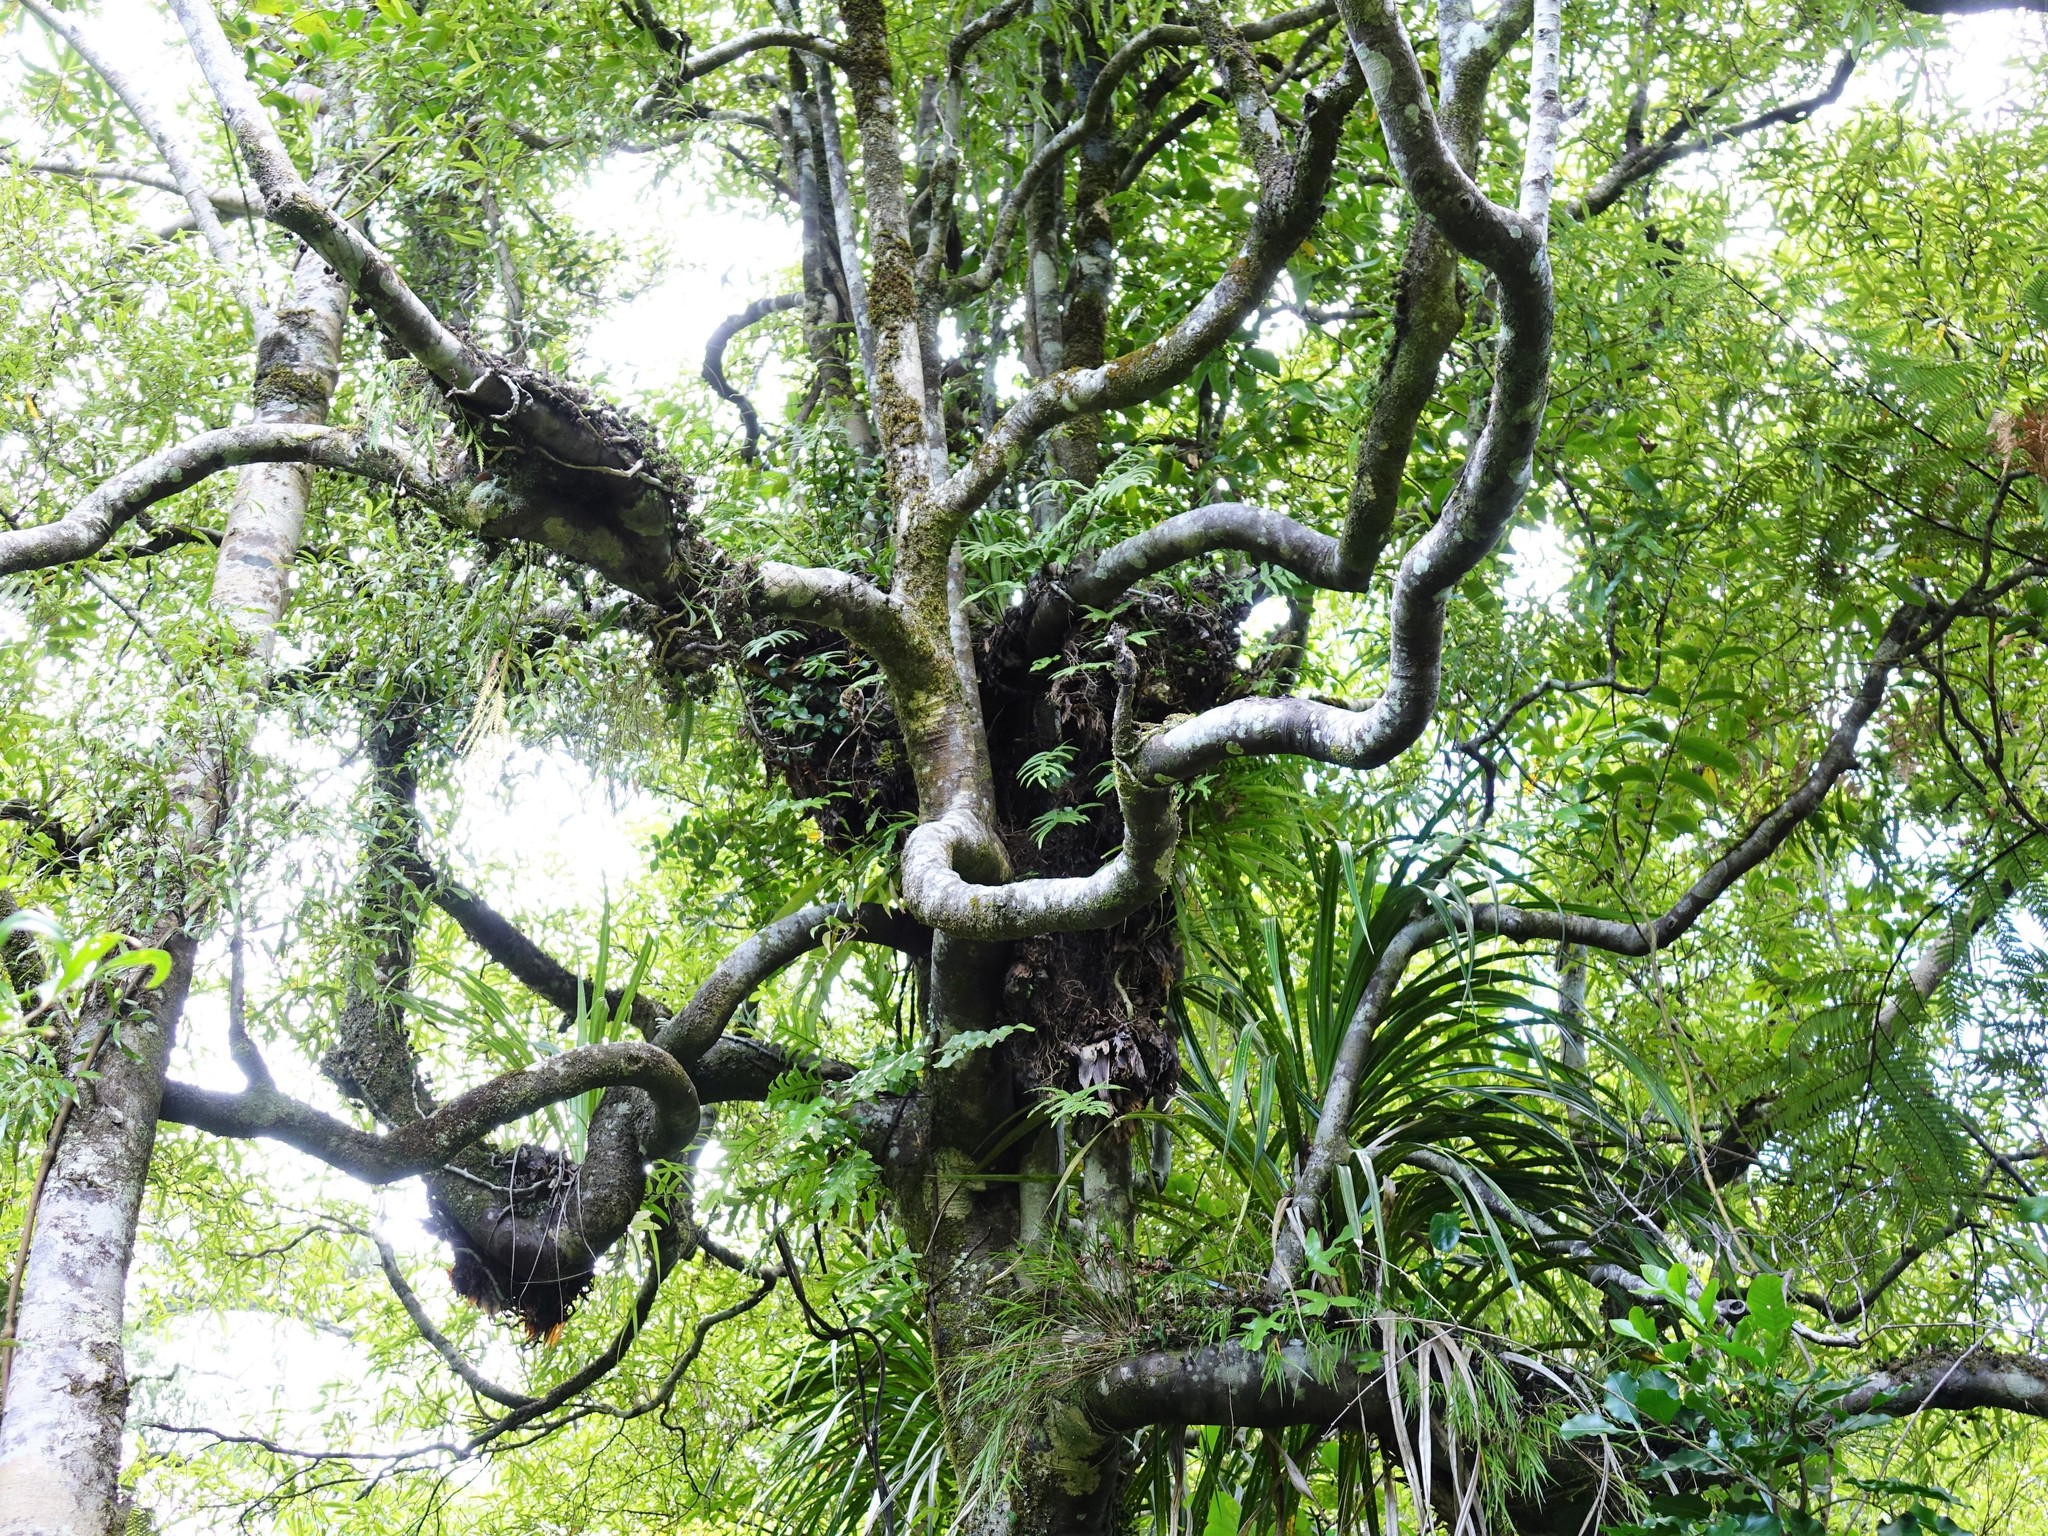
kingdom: Plantae
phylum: Tracheophyta
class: Magnoliopsida
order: Laurales
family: Lauraceae
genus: Beilschmiedia
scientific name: Beilschmiedia tawa
